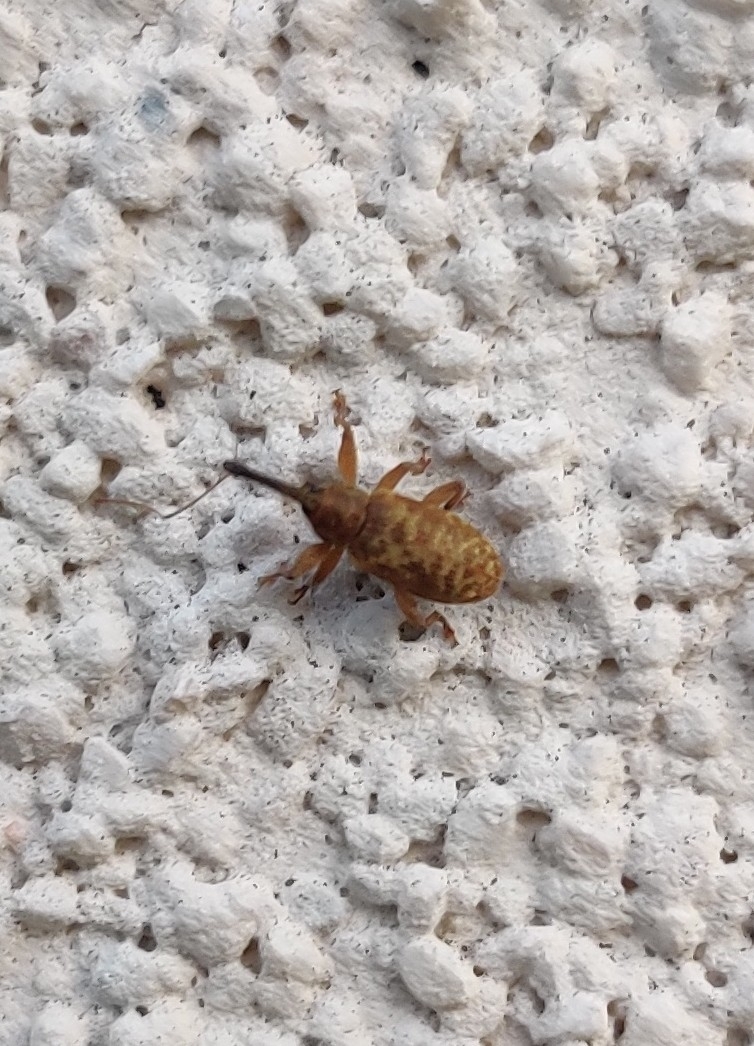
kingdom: Animalia
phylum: Arthropoda
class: Insecta
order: Coleoptera
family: Brachyceridae
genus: Erirhinus
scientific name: Erirhinus filirostris
